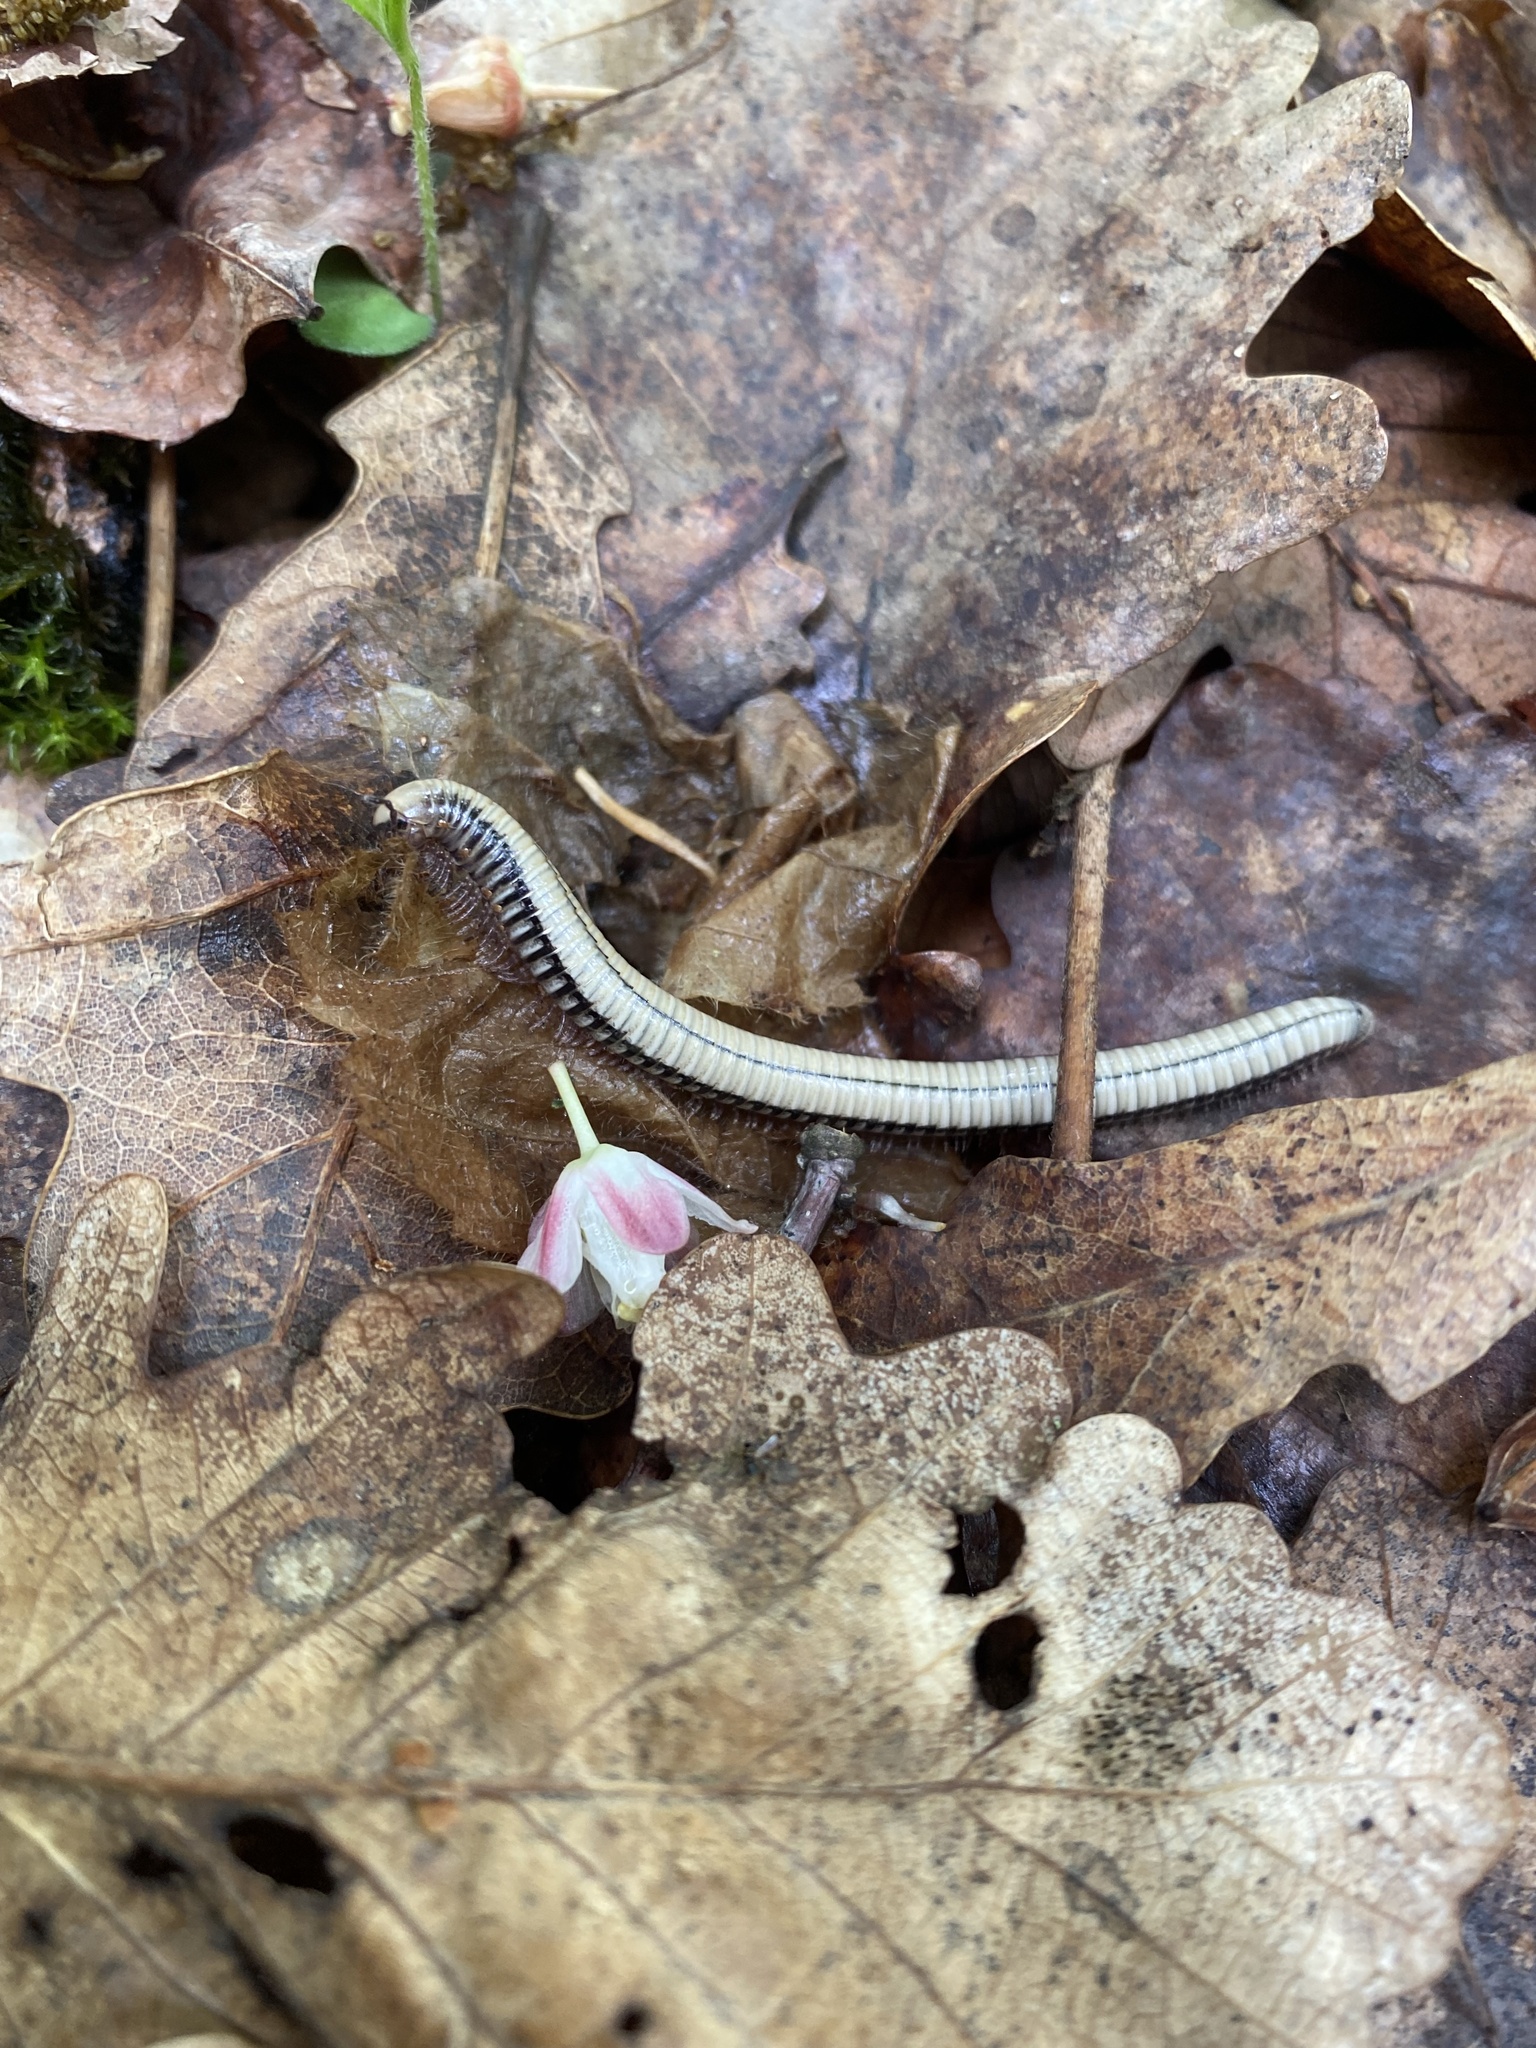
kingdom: Animalia
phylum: Arthropoda
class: Diplopoda
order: Julida
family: Julidae
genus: Pachyiulus
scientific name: Pachyiulus krivolutskyi
